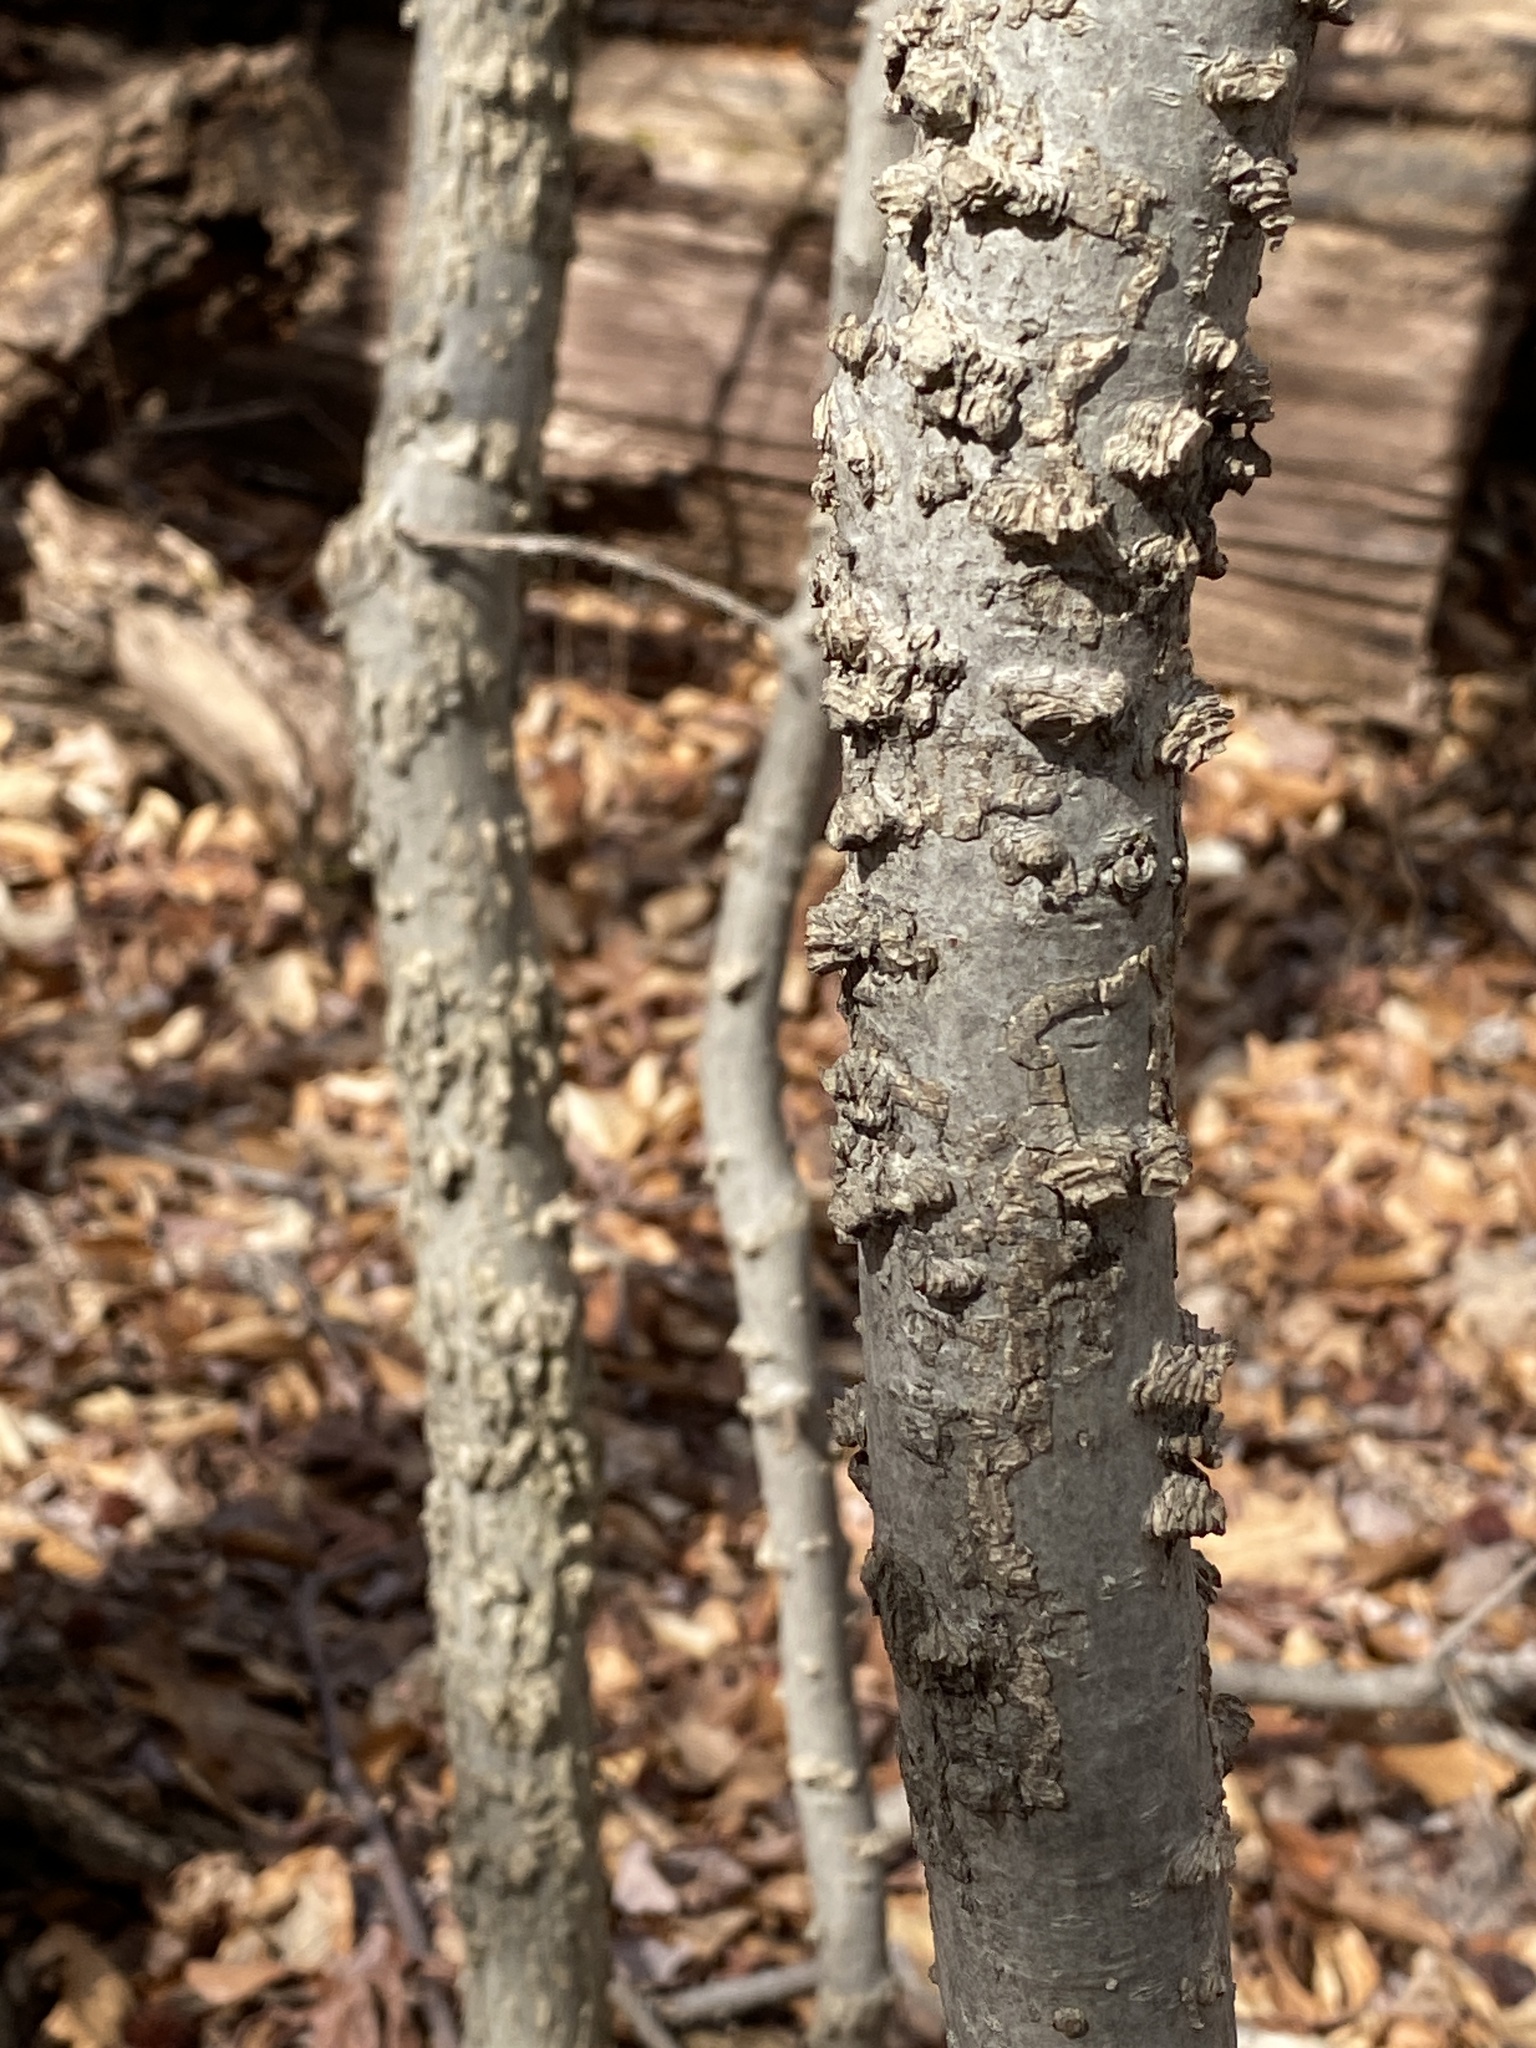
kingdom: Plantae
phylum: Tracheophyta
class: Magnoliopsida
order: Saxifragales
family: Altingiaceae
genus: Liquidambar
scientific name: Liquidambar styraciflua
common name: Sweet gum
